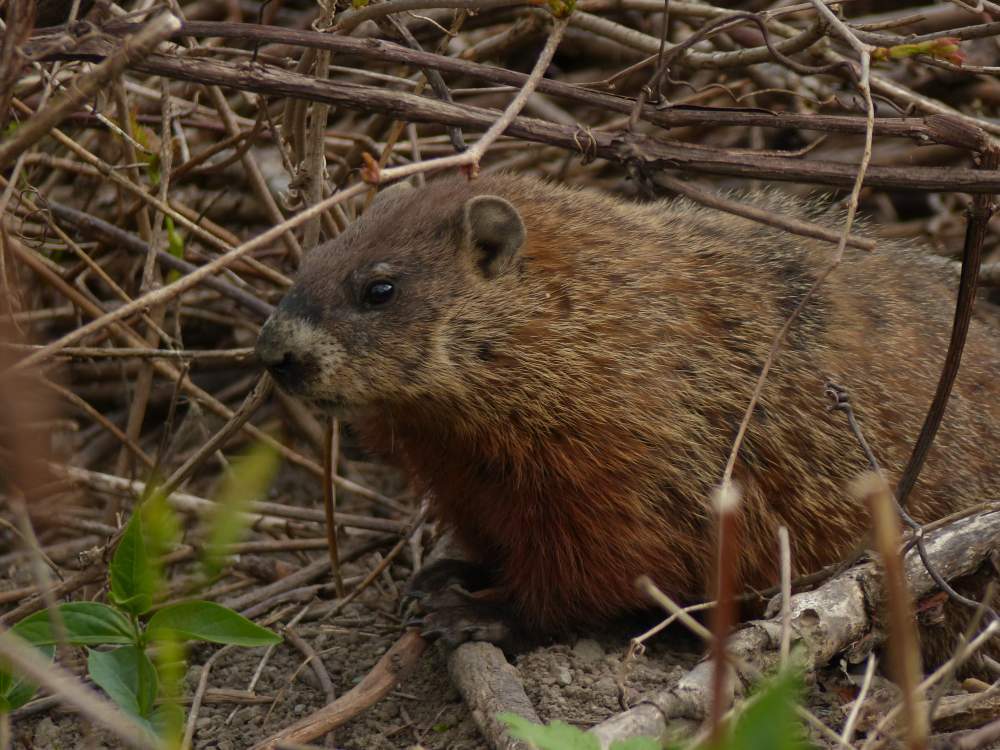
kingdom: Animalia
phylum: Chordata
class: Mammalia
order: Rodentia
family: Sciuridae
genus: Marmota
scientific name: Marmota monax
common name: Groundhog
